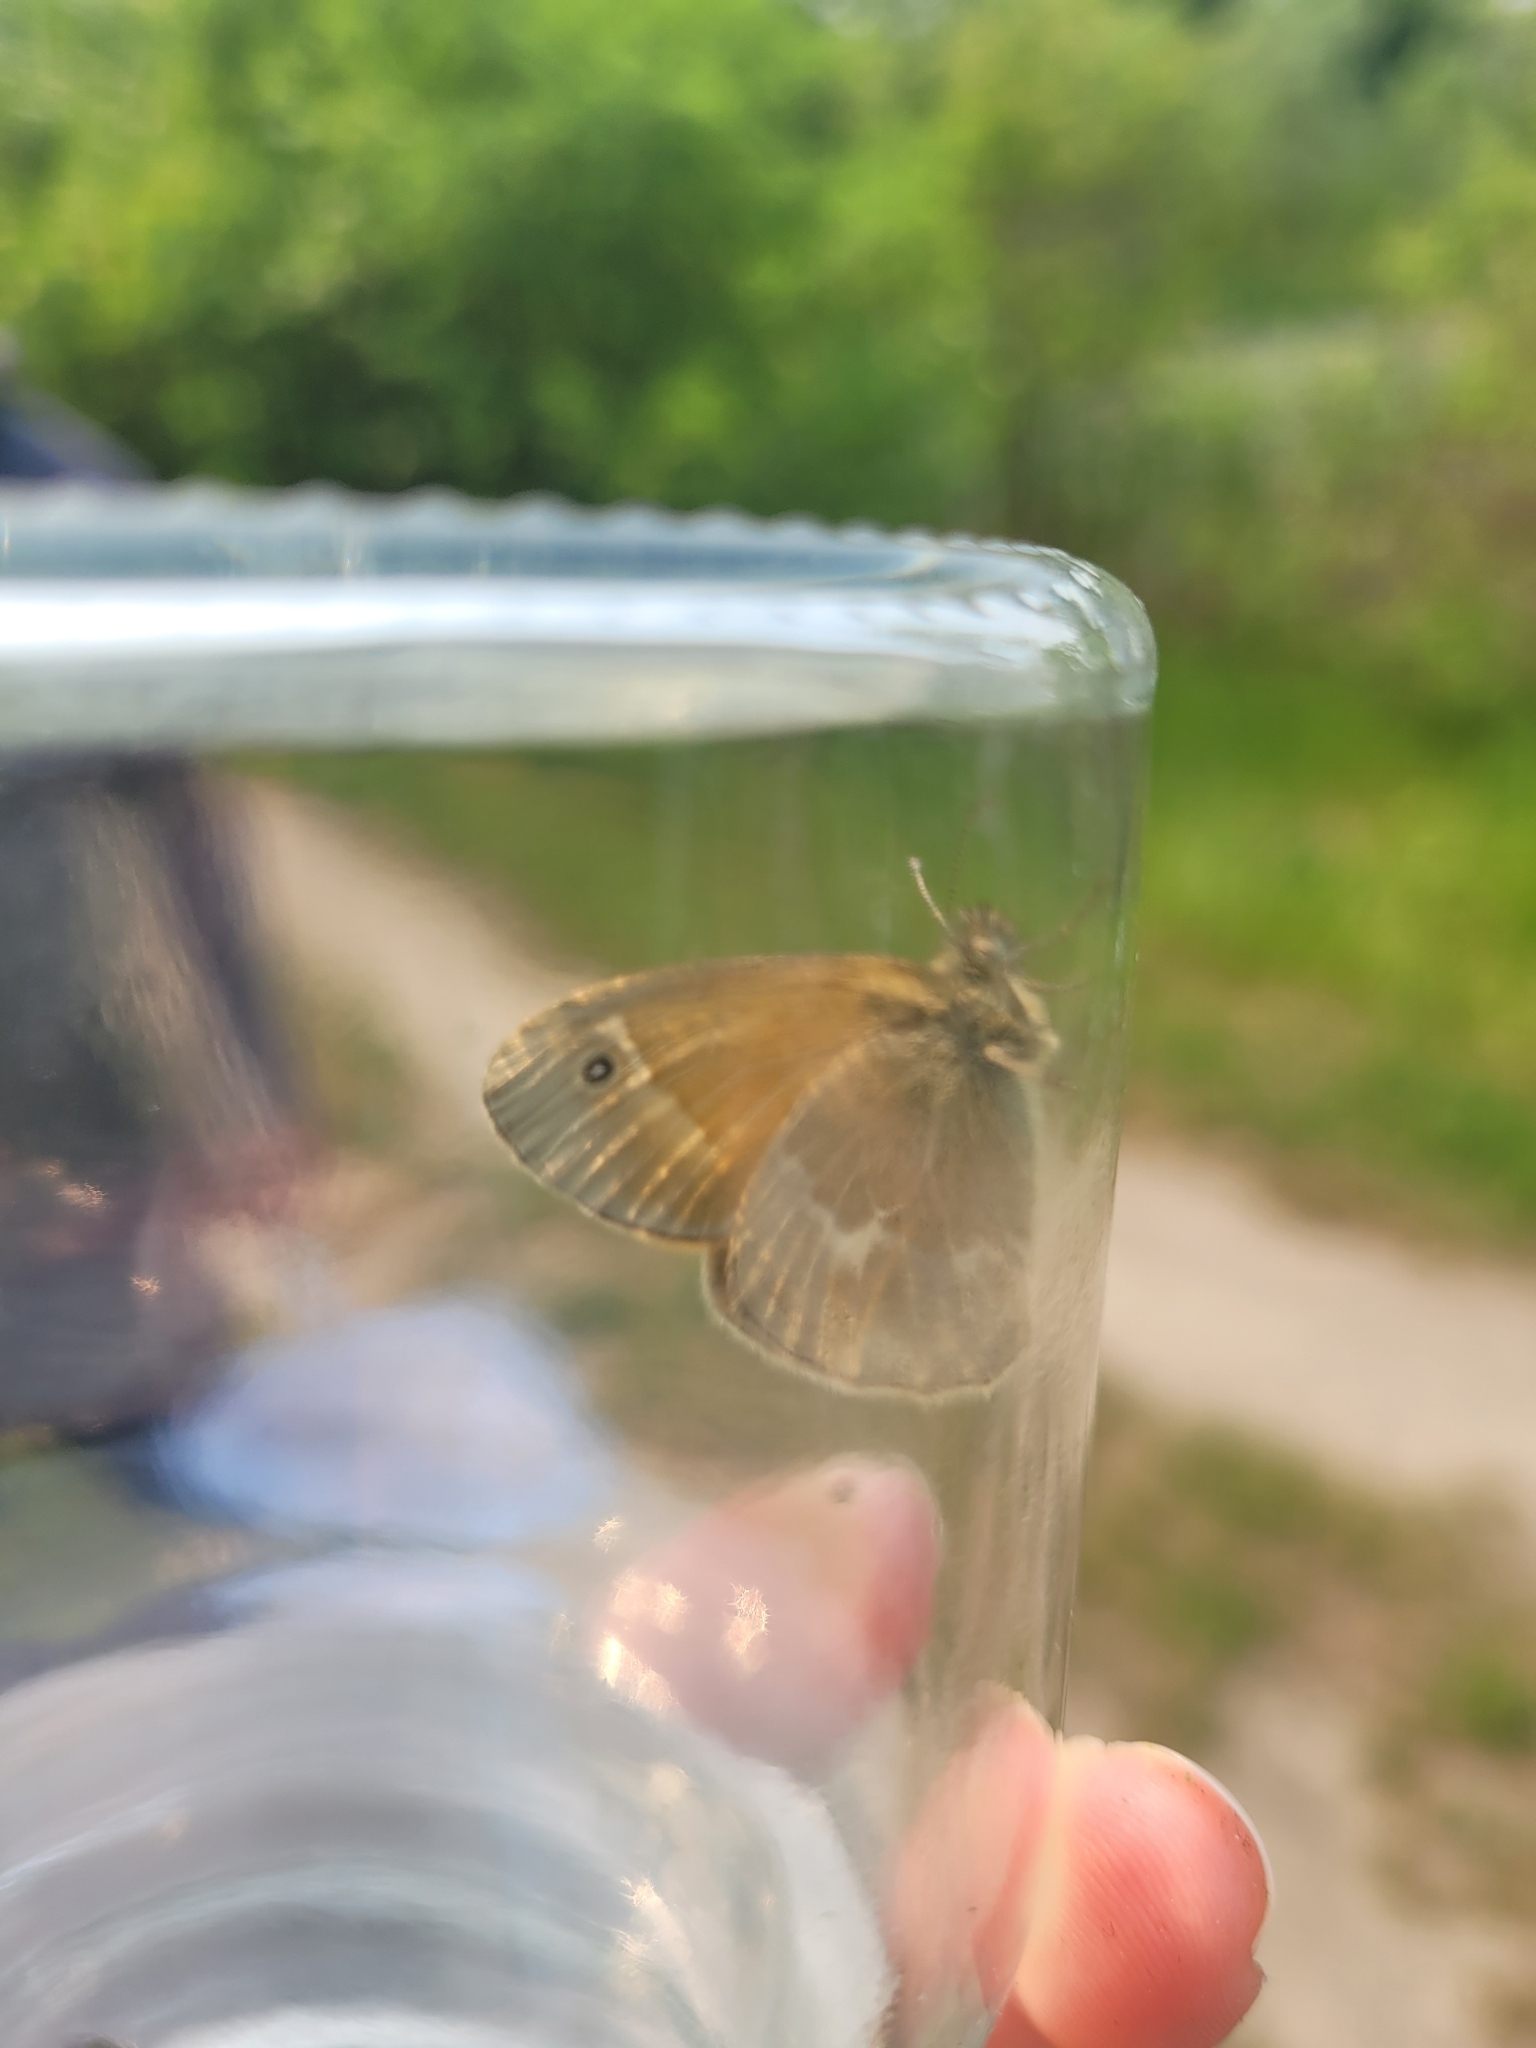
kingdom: Animalia
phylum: Arthropoda
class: Insecta
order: Lepidoptera
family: Nymphalidae
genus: Coenonympha
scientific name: Coenonympha california
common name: Common ringlet
